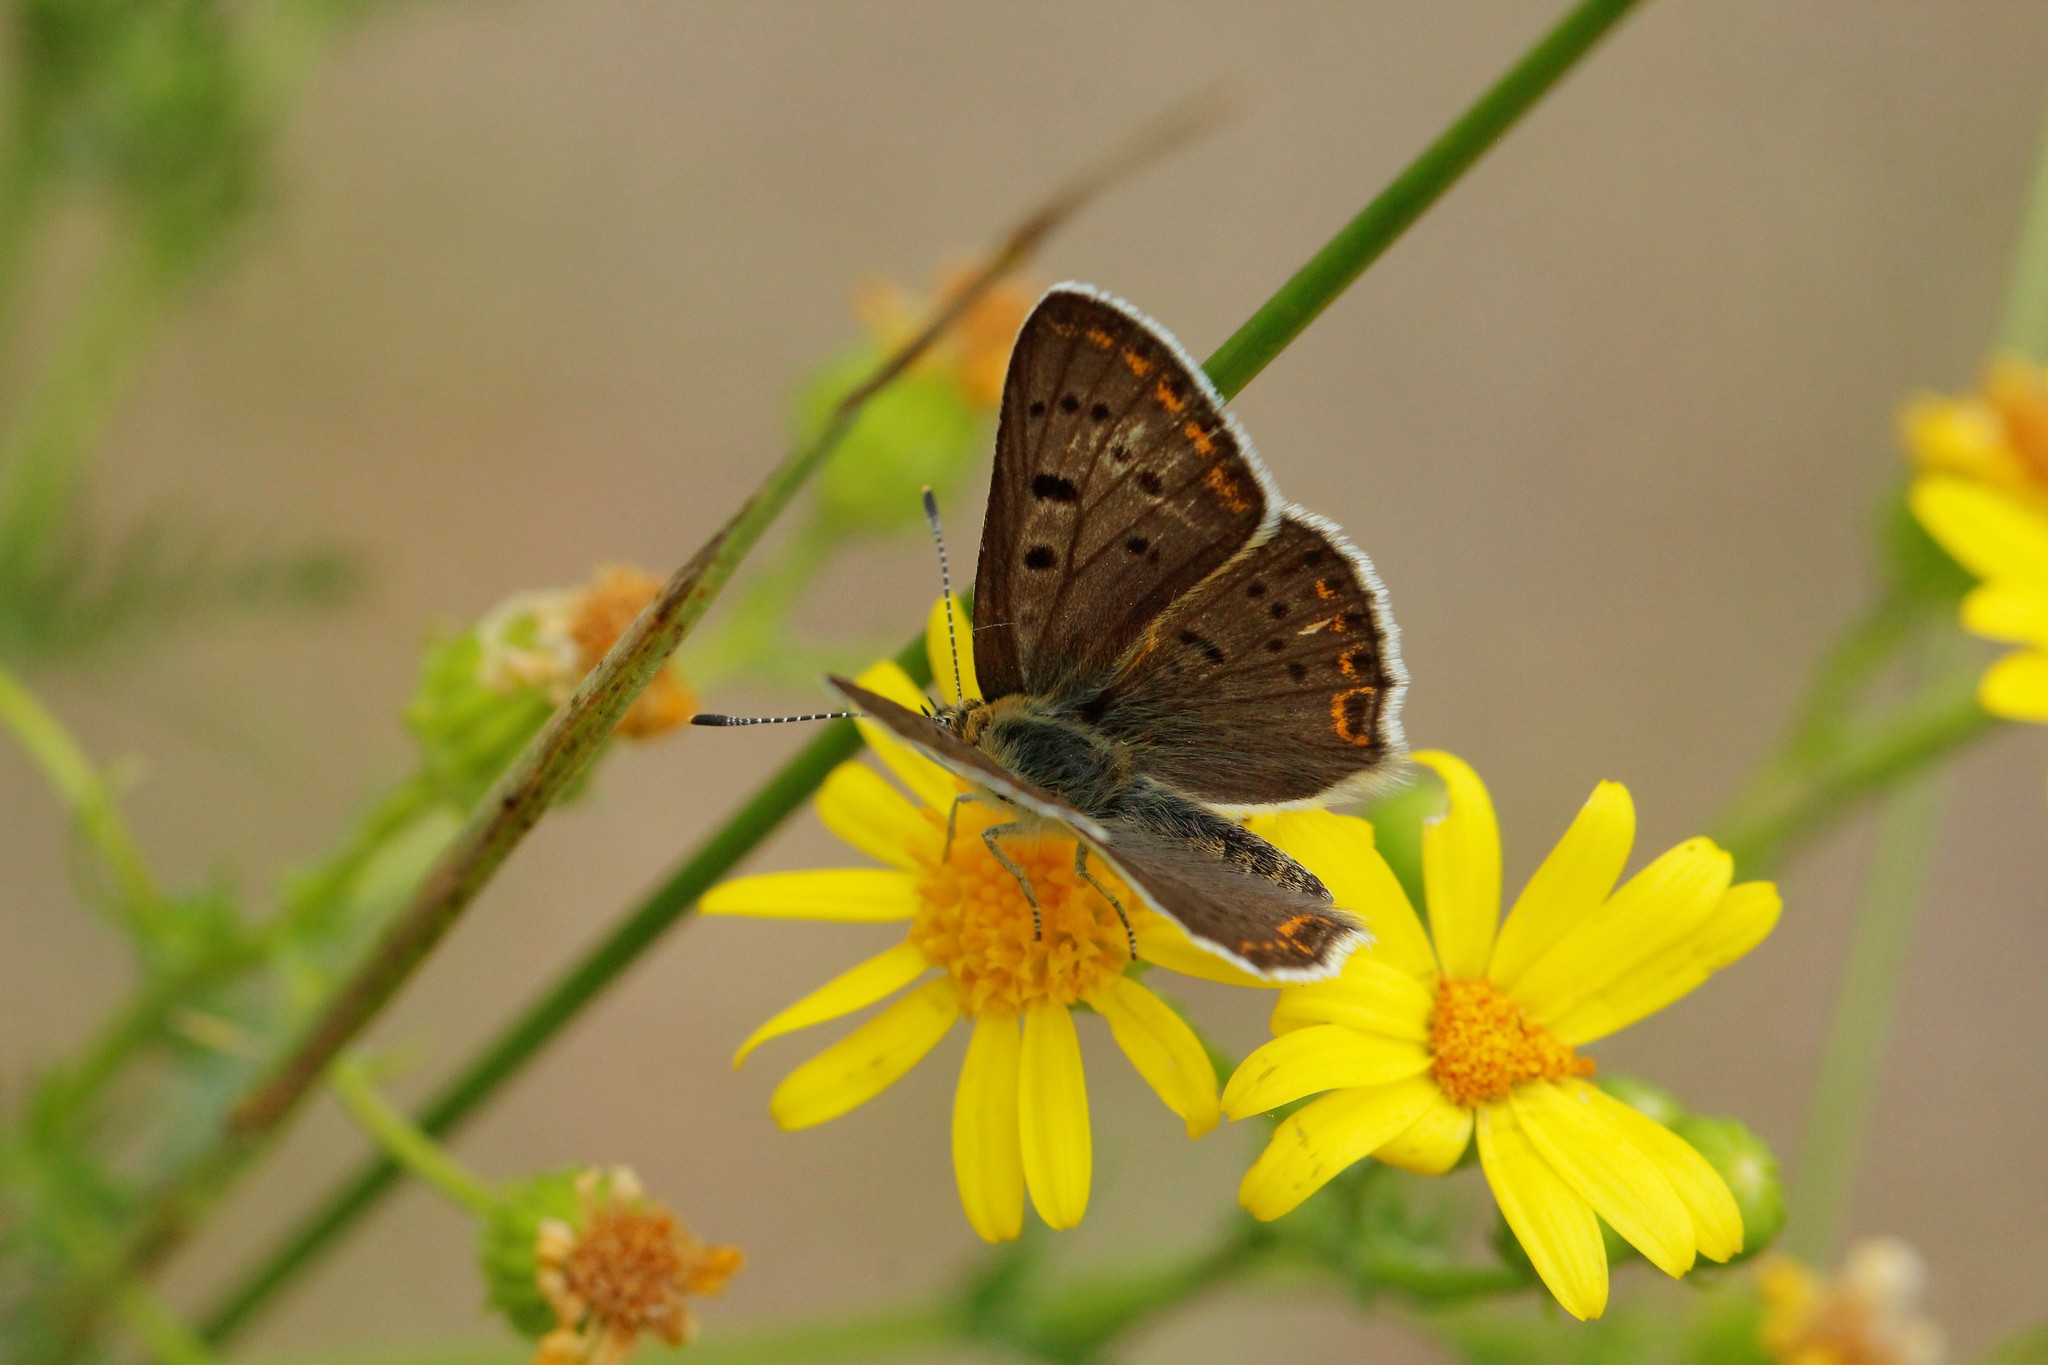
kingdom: Animalia
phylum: Arthropoda
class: Insecta
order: Lepidoptera
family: Lycaenidae
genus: Loweia
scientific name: Loweia tityrus
